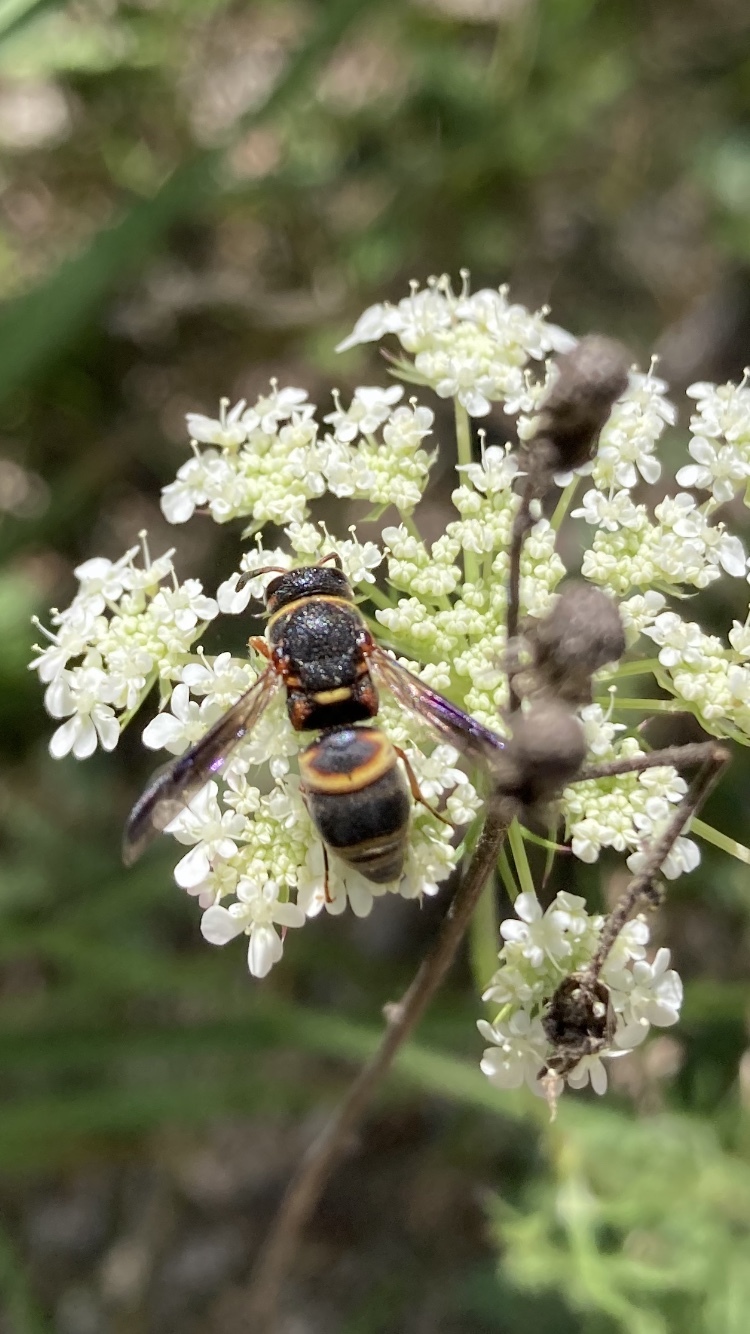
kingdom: Animalia
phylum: Arthropoda
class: Insecta
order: Hymenoptera
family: Eumenidae
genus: Euodynerus
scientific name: Euodynerus hidalgo
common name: Wasp
